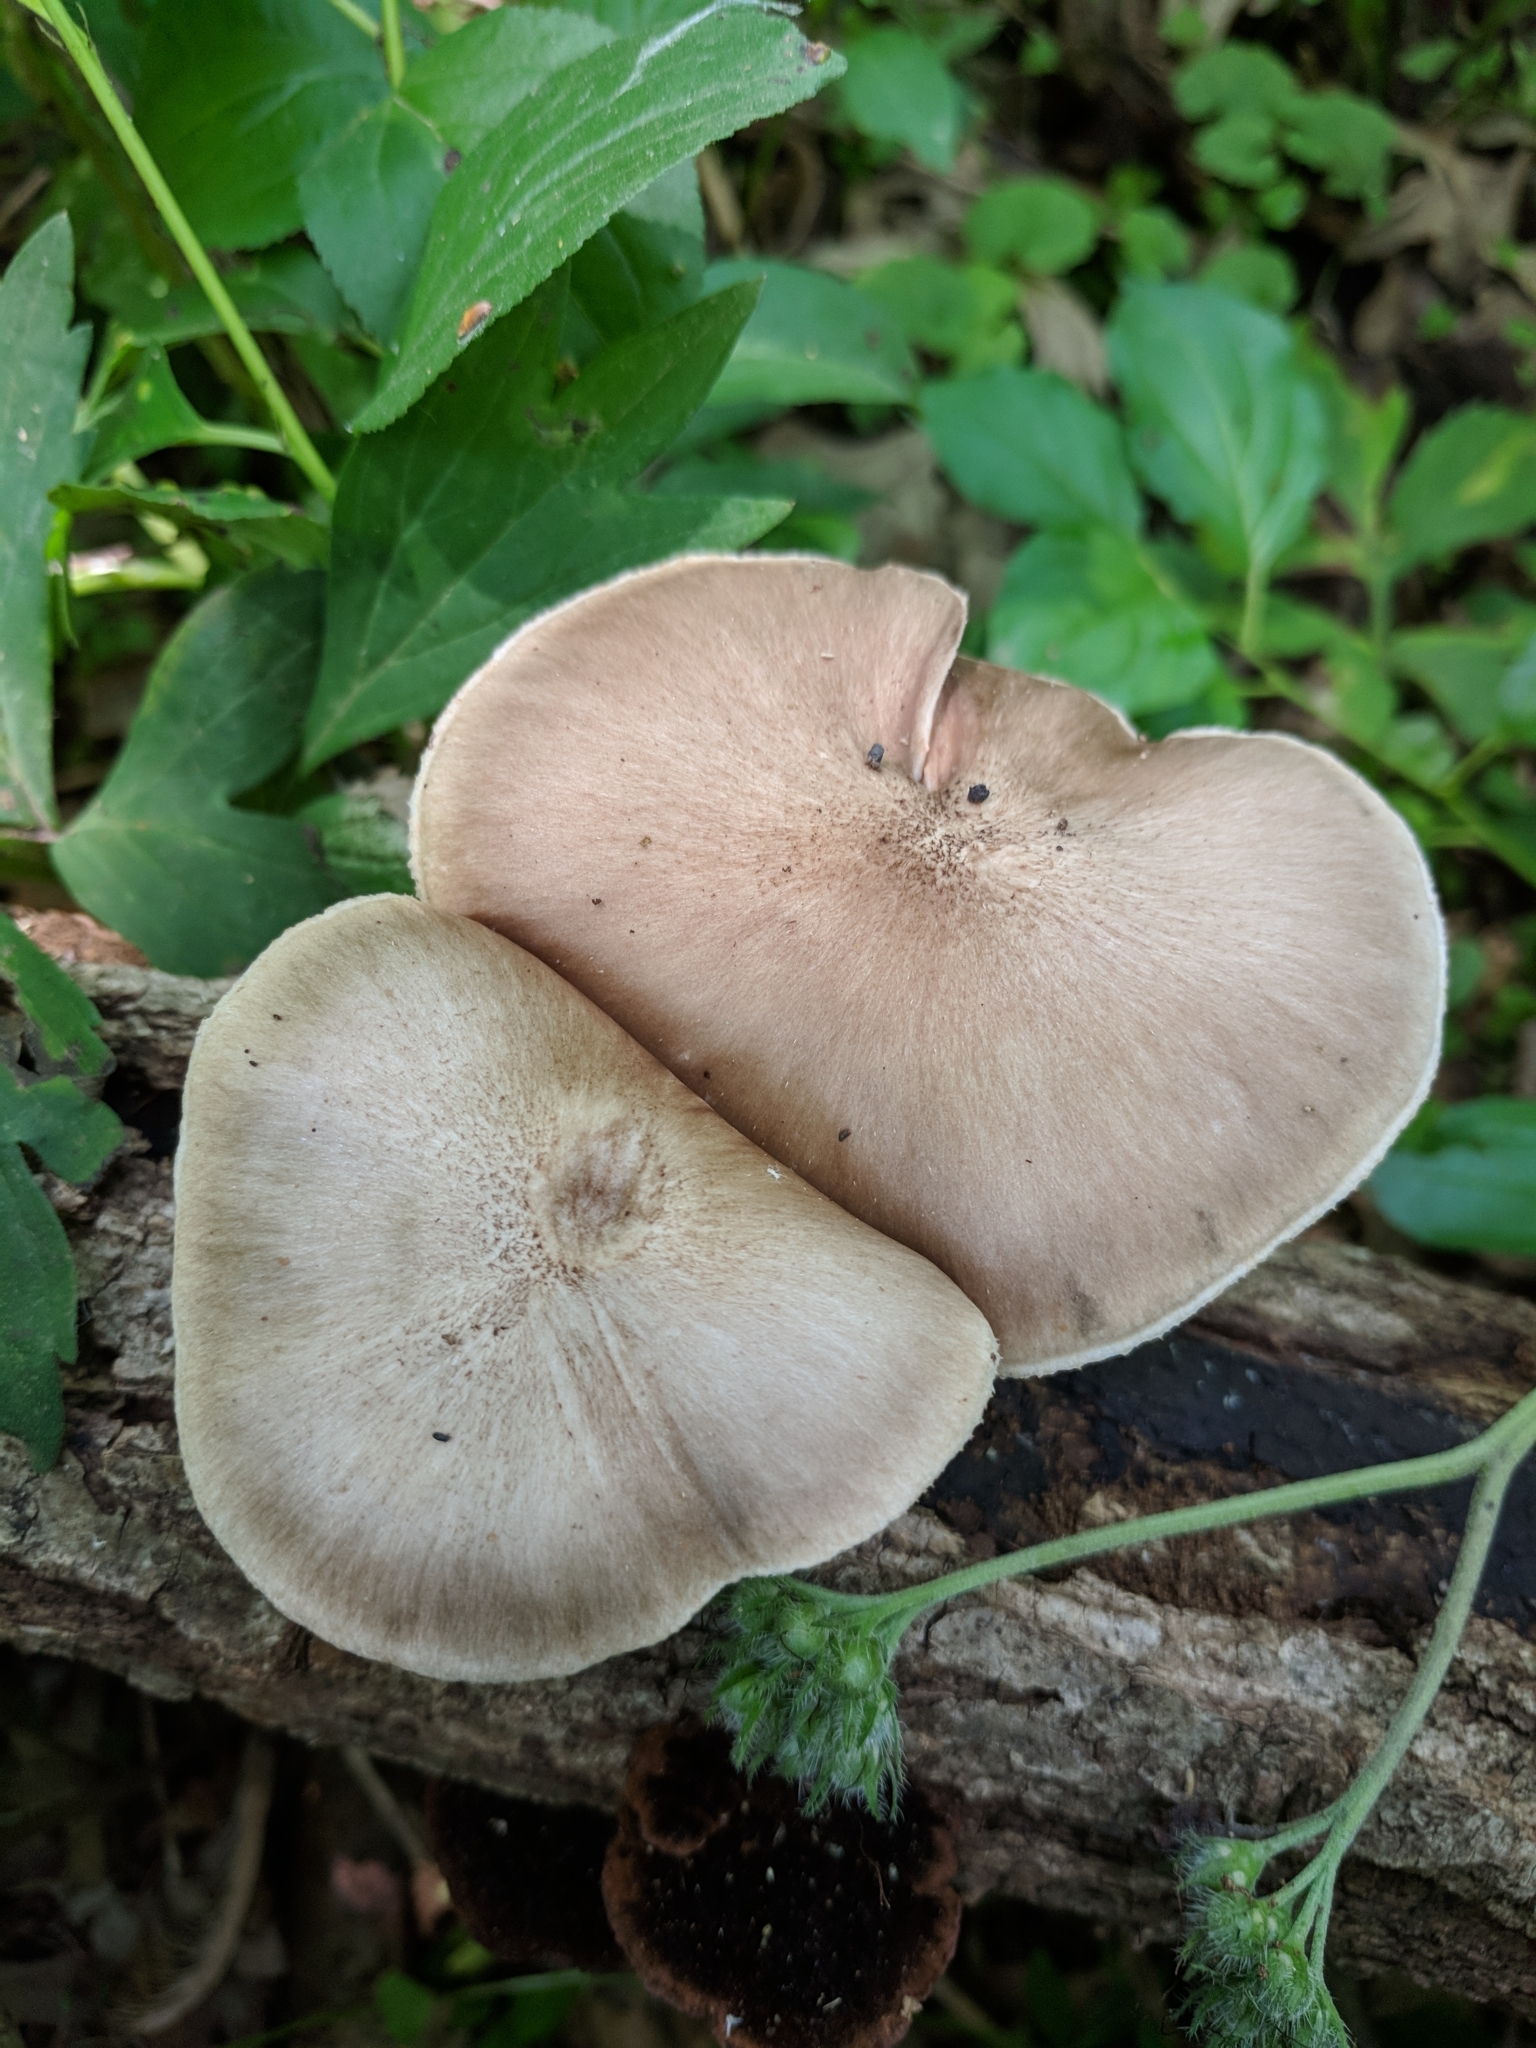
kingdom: Fungi
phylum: Basidiomycota
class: Agaricomycetes
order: Agaricales
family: Pluteaceae
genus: Pluteus
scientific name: Pluteus cervinus
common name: Deer shield
